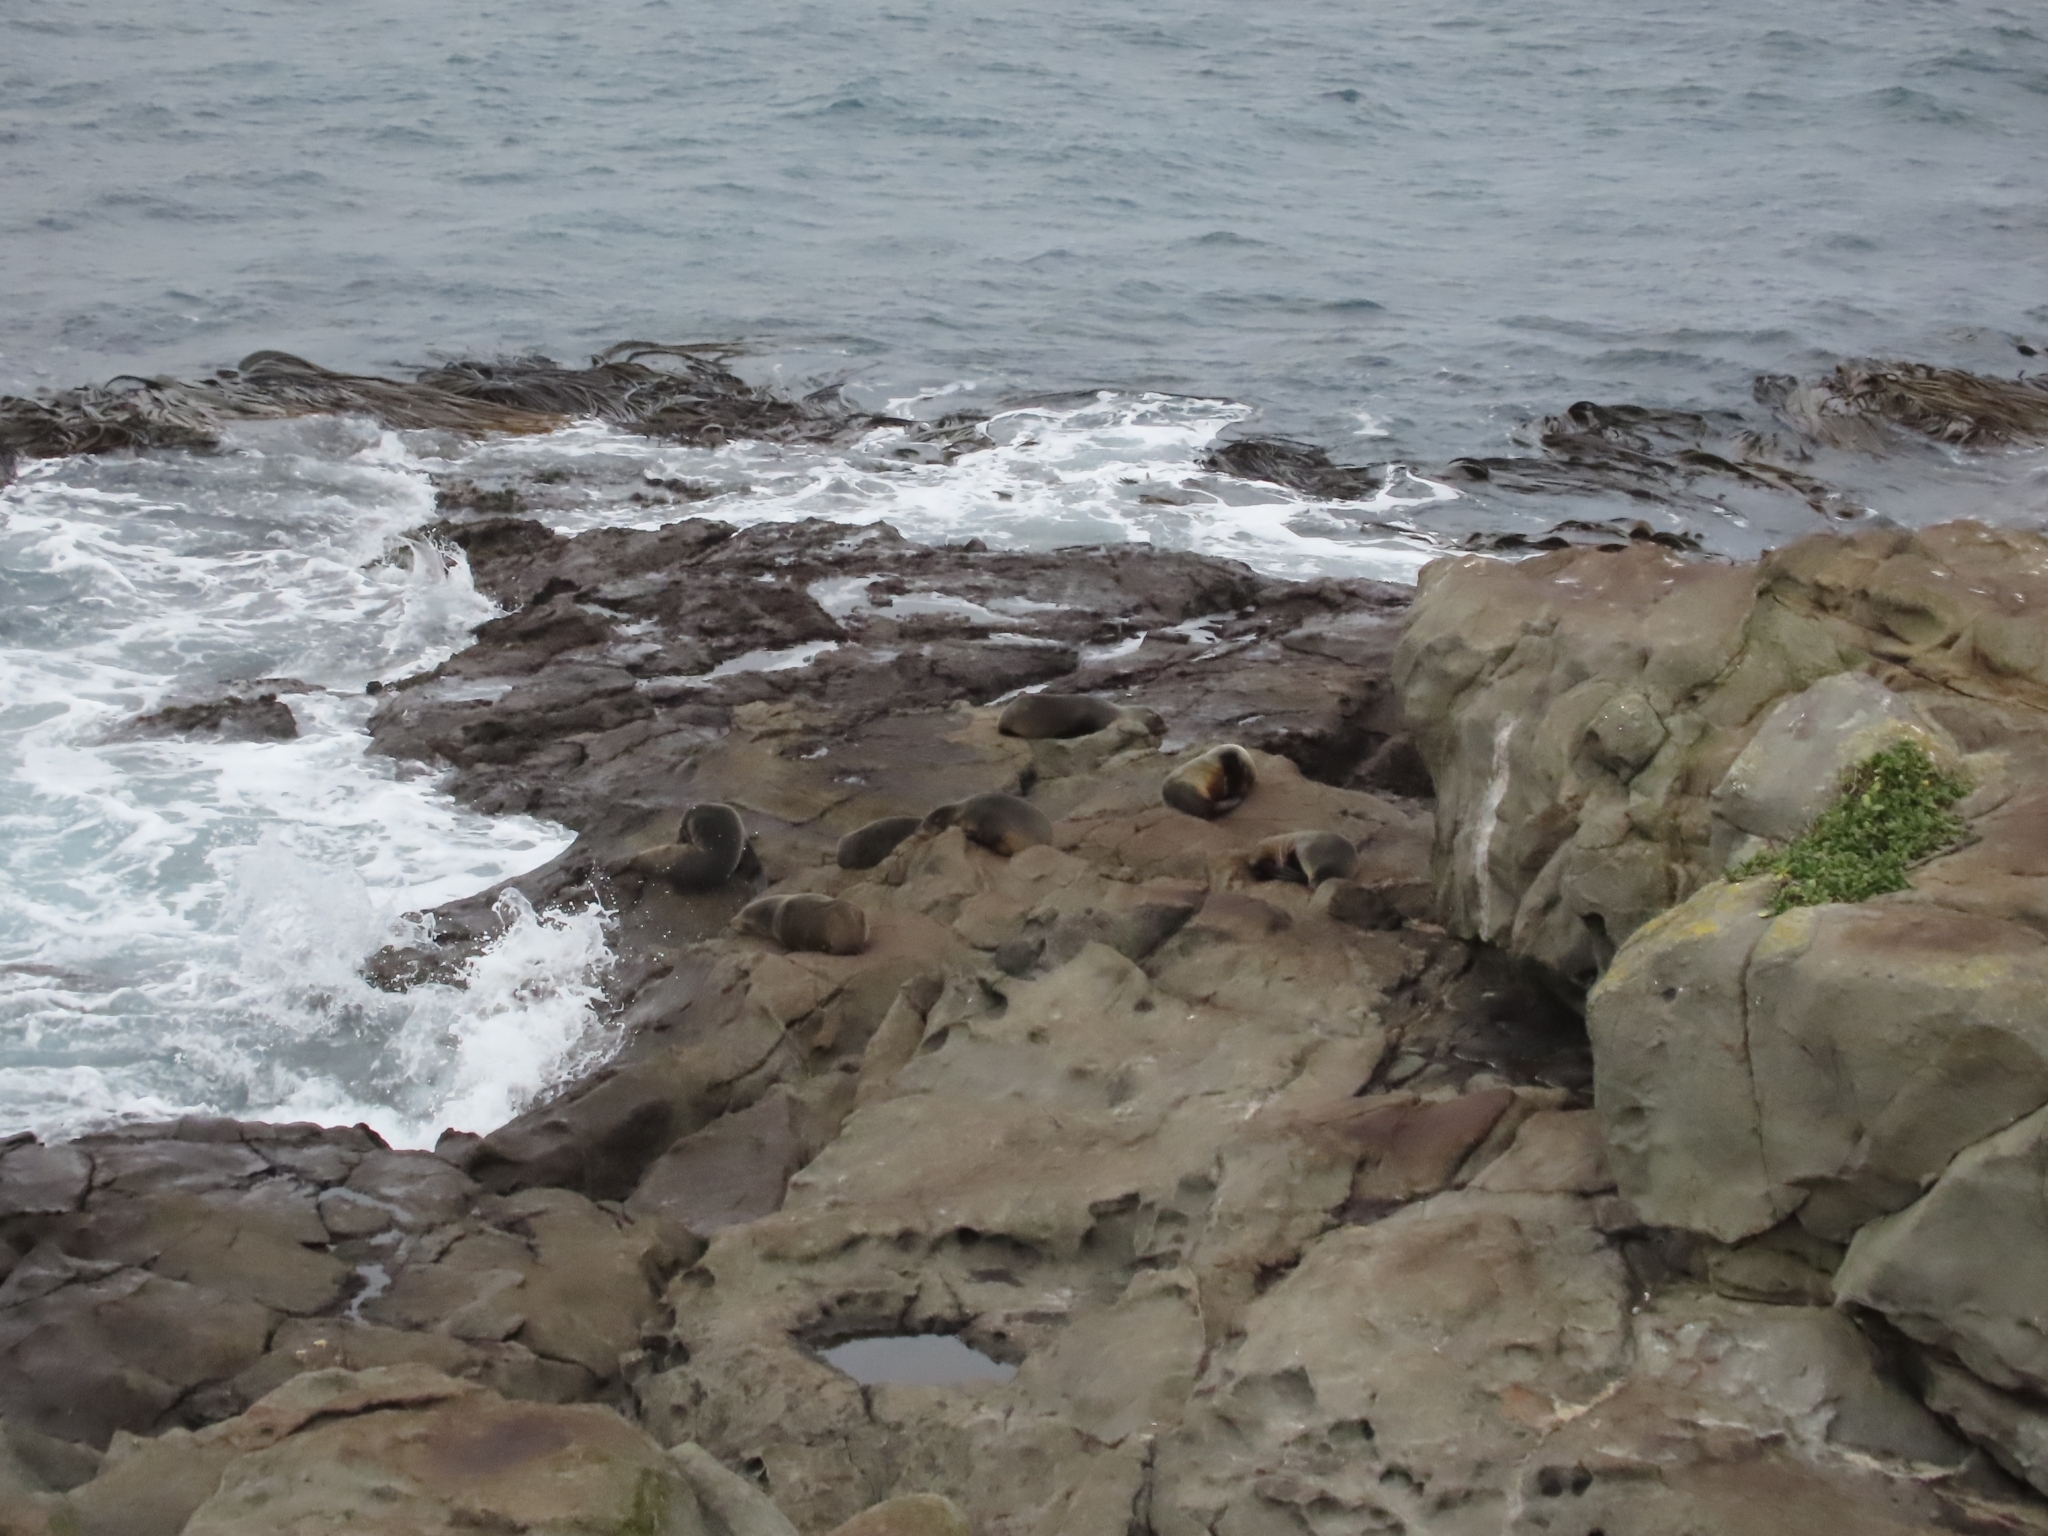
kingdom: Animalia
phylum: Chordata
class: Mammalia
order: Carnivora
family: Otariidae
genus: Arctocephalus
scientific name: Arctocephalus forsteri
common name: New zealand fur seal
